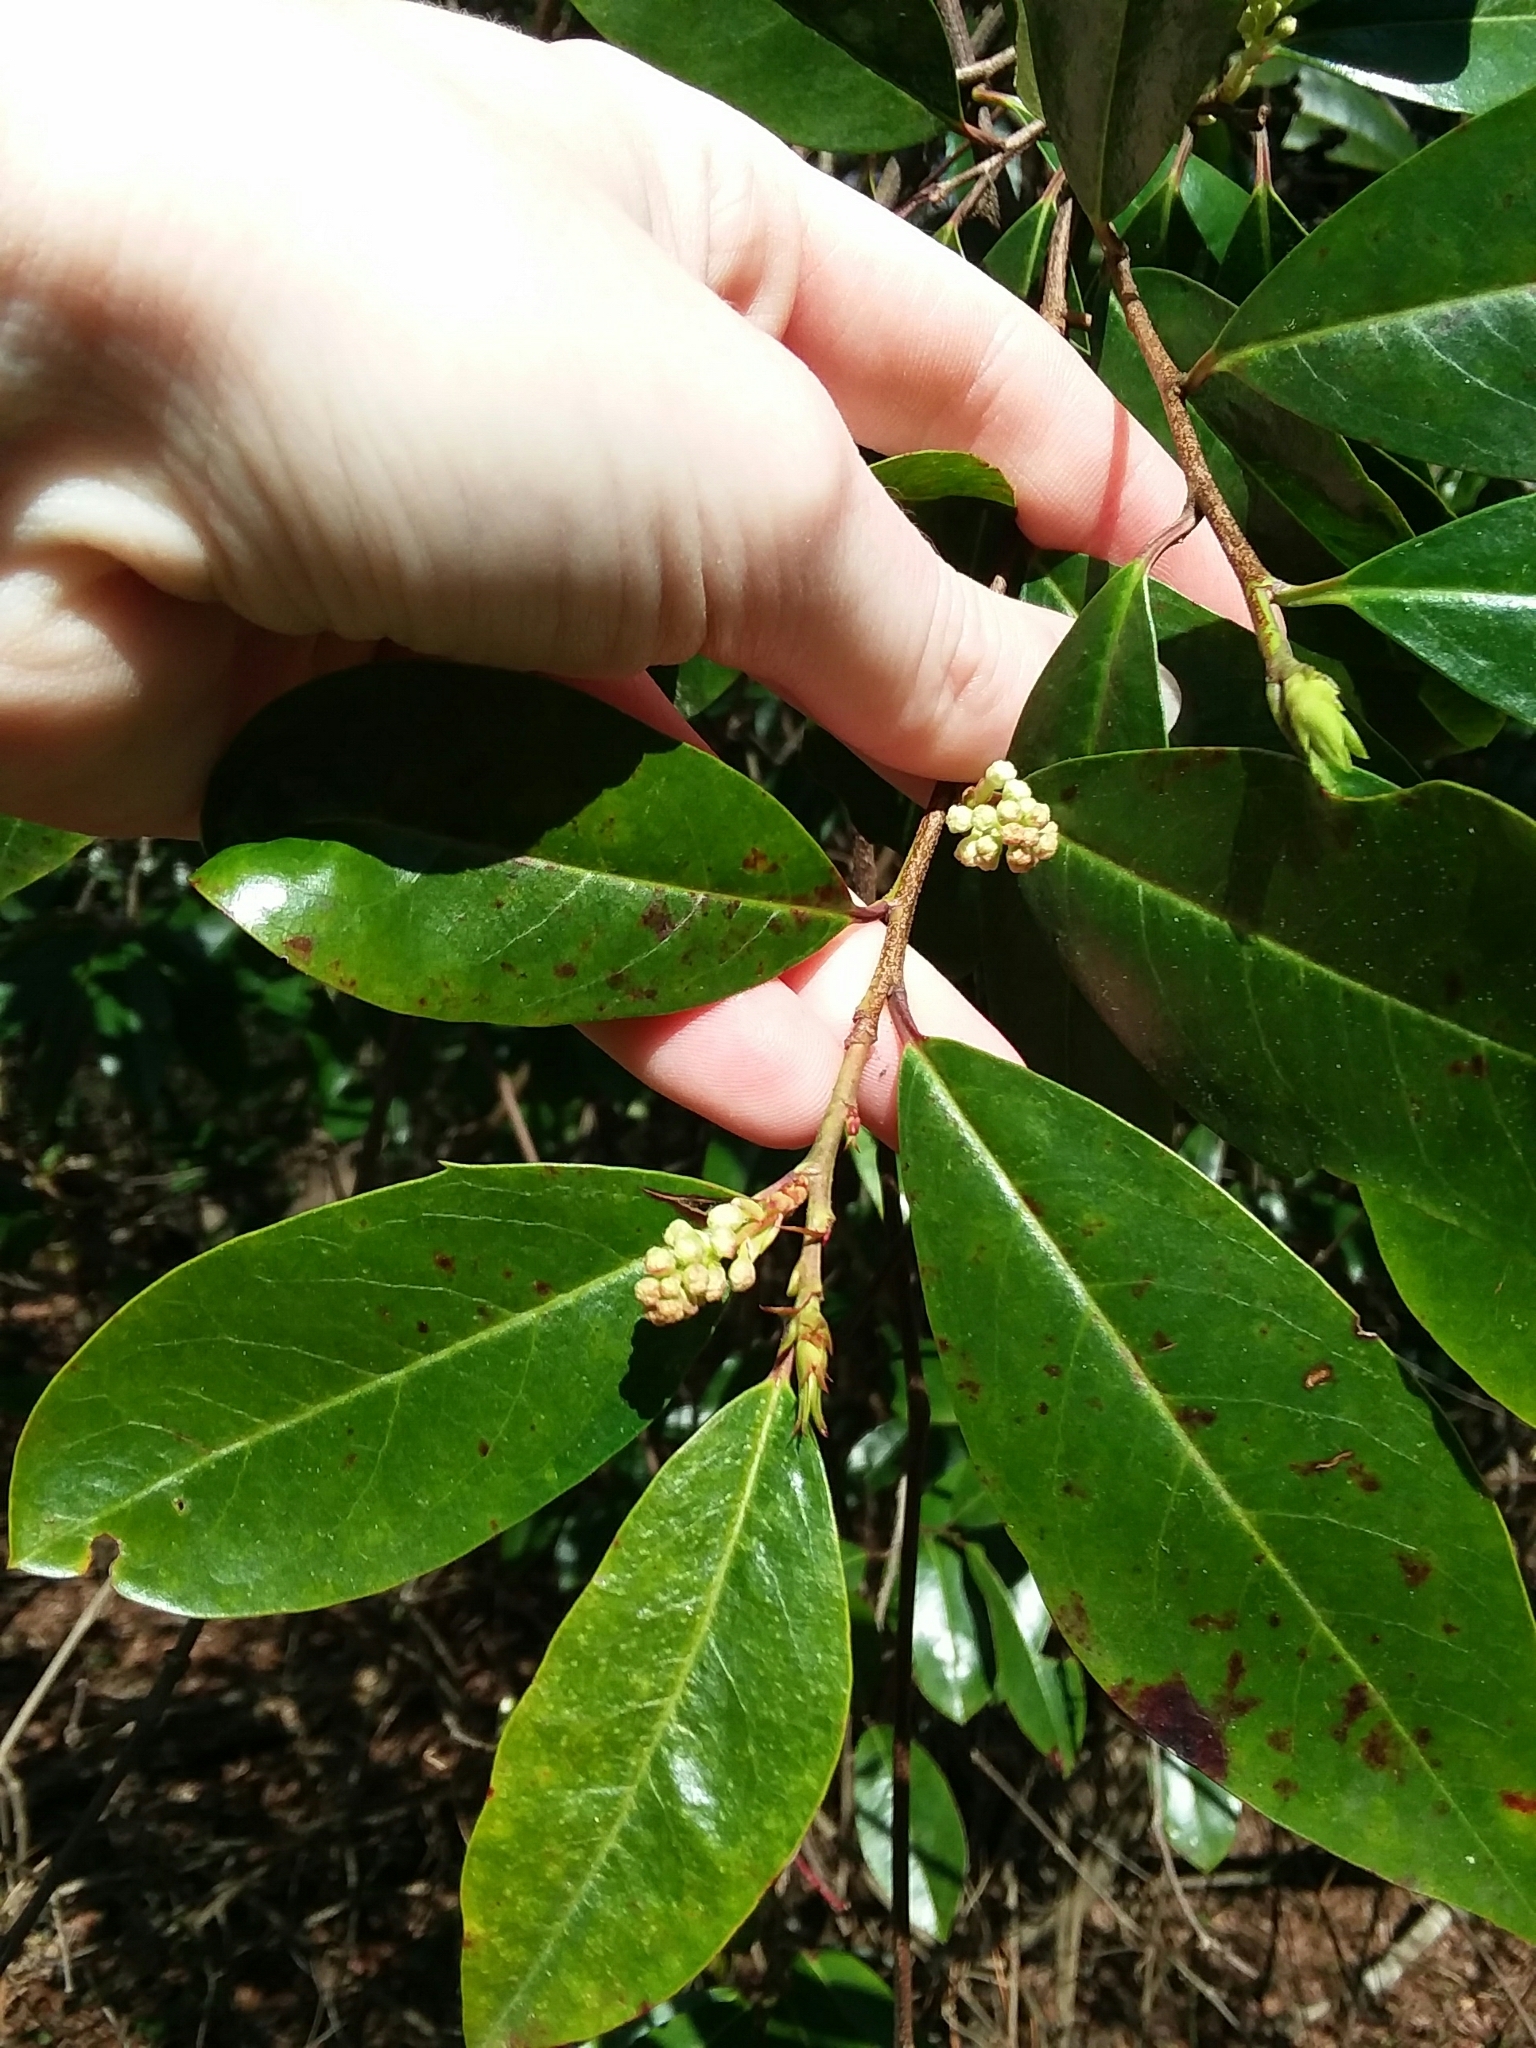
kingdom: Plantae
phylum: Tracheophyta
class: Magnoliopsida
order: Rosales
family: Rosaceae
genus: Prunus
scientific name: Prunus caroliniana
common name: Carolina laurel cherry
